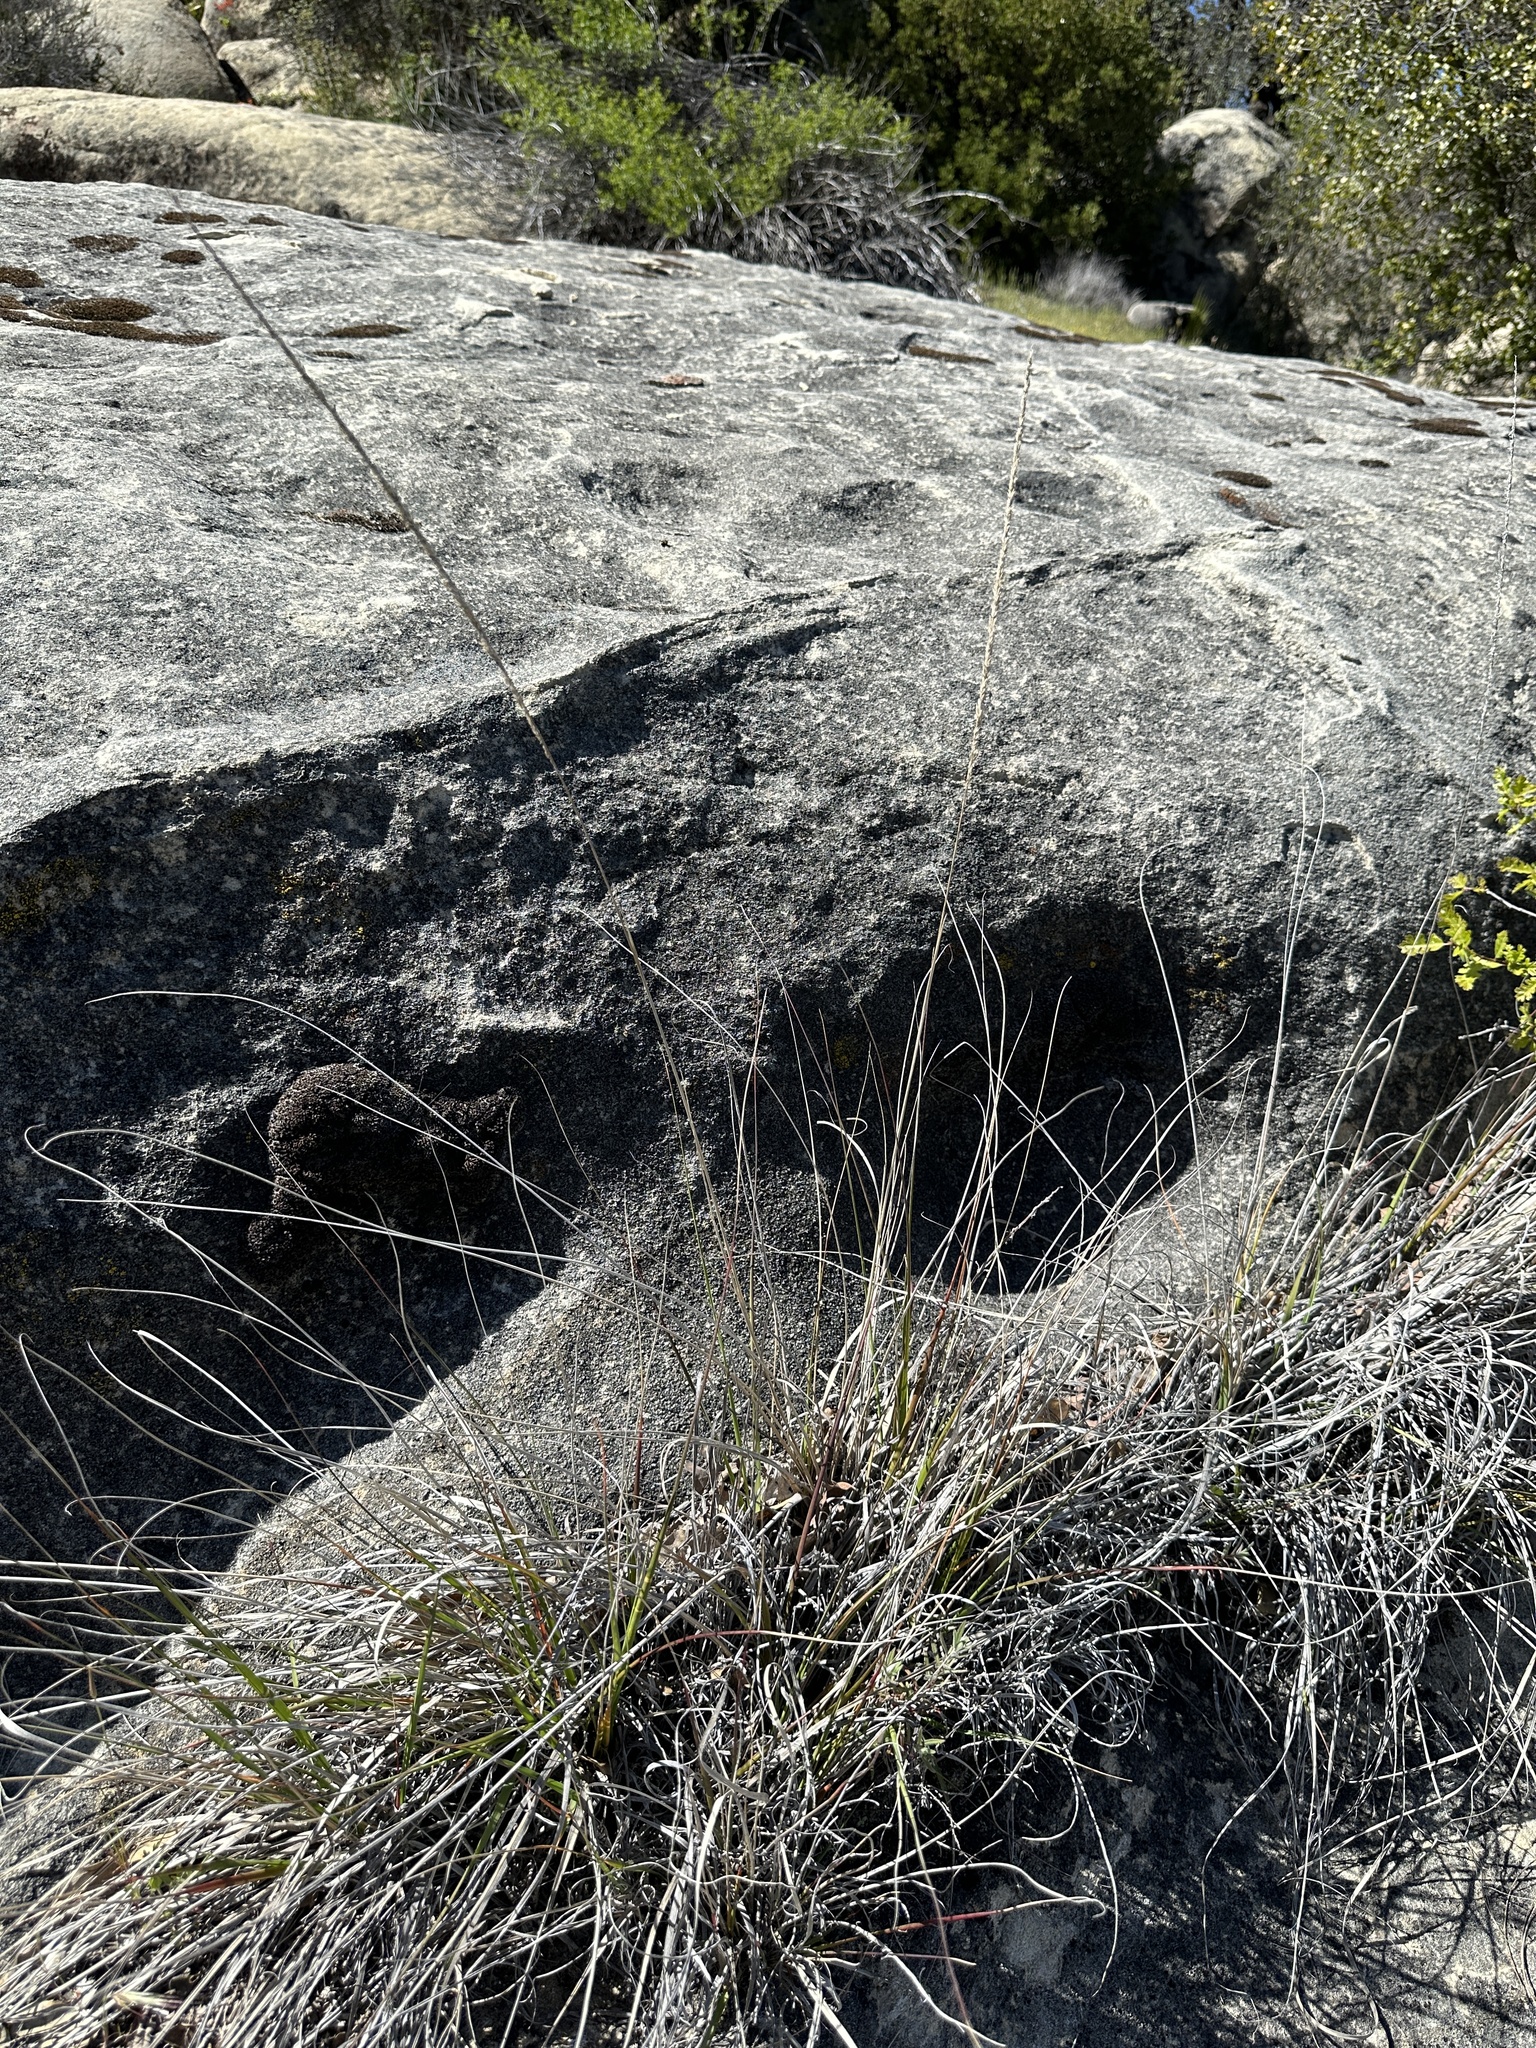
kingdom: Plantae
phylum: Tracheophyta
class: Liliopsida
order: Poales
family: Poaceae
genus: Muhlenbergia
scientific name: Muhlenbergia rigens
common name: Deer grass
